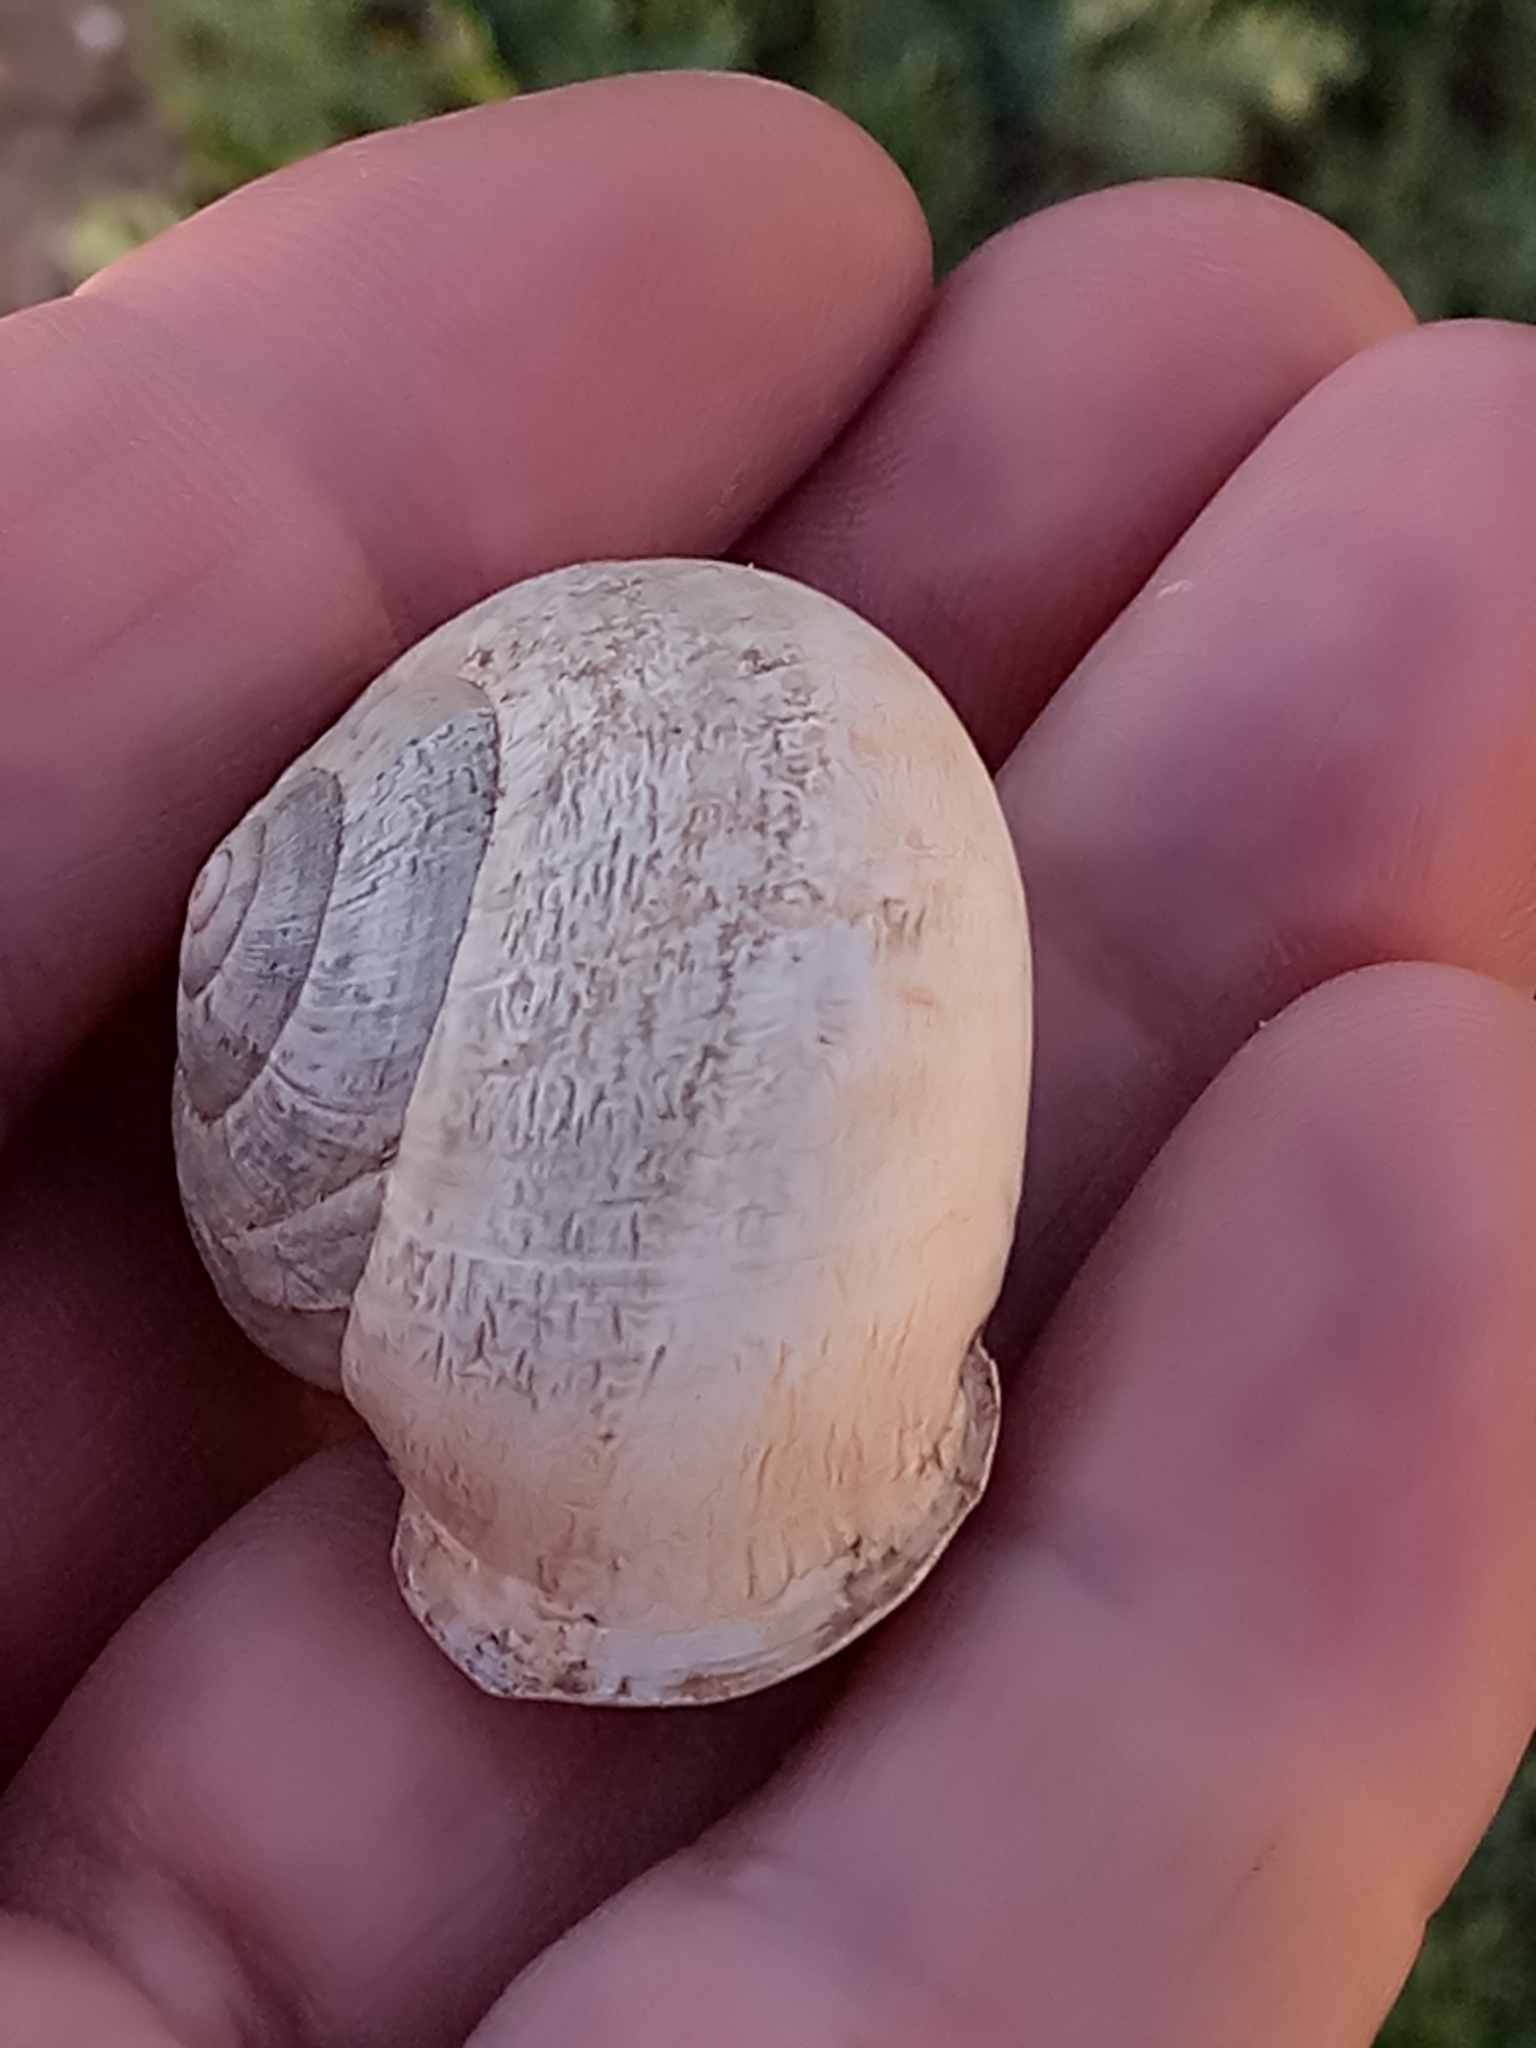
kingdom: Animalia
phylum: Mollusca
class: Gastropoda
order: Stylommatophora
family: Helicidae
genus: Eobania
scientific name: Eobania vermiculata
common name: Chocolateband snail
